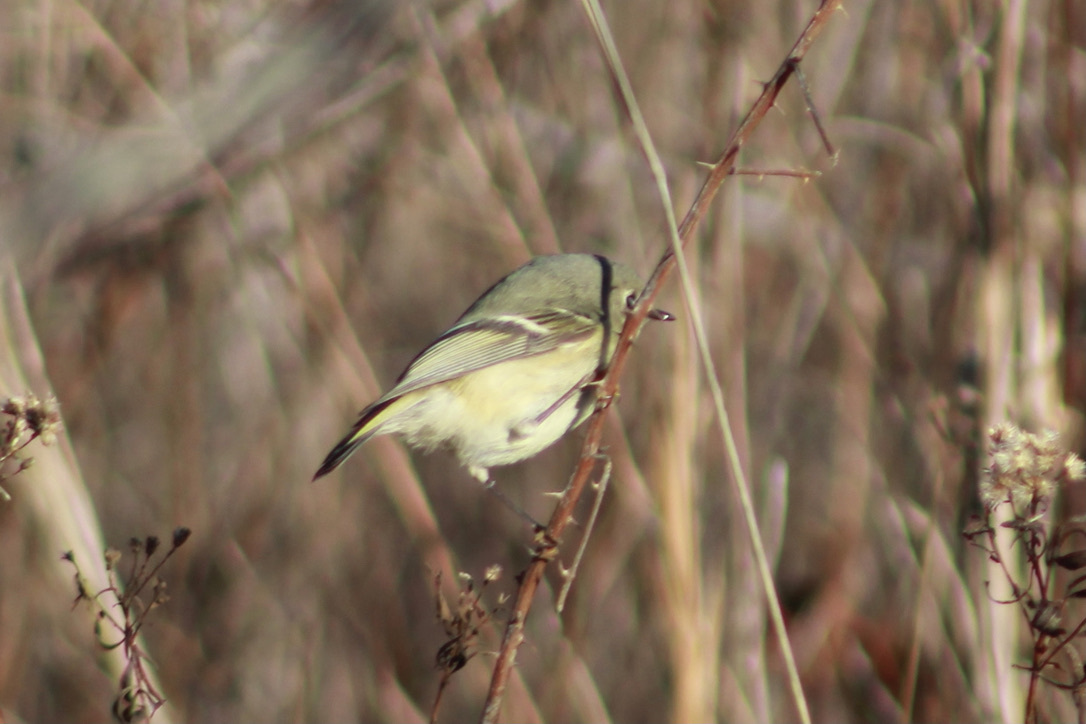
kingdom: Animalia
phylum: Chordata
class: Aves
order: Passeriformes
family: Regulidae
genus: Regulus
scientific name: Regulus calendula
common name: Ruby-crowned kinglet
